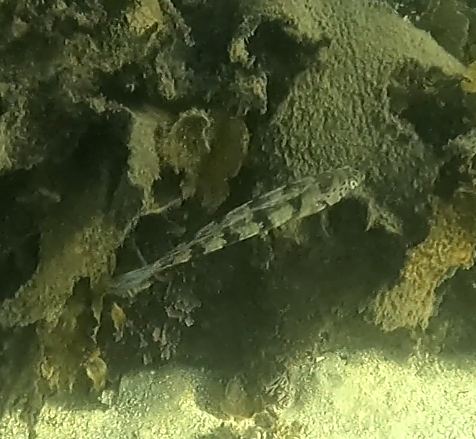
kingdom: Animalia
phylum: Chordata
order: Perciformes
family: Labridae
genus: Eupetrichthys
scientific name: Eupetrichthys angustipes
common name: Snake-skin wrasse
